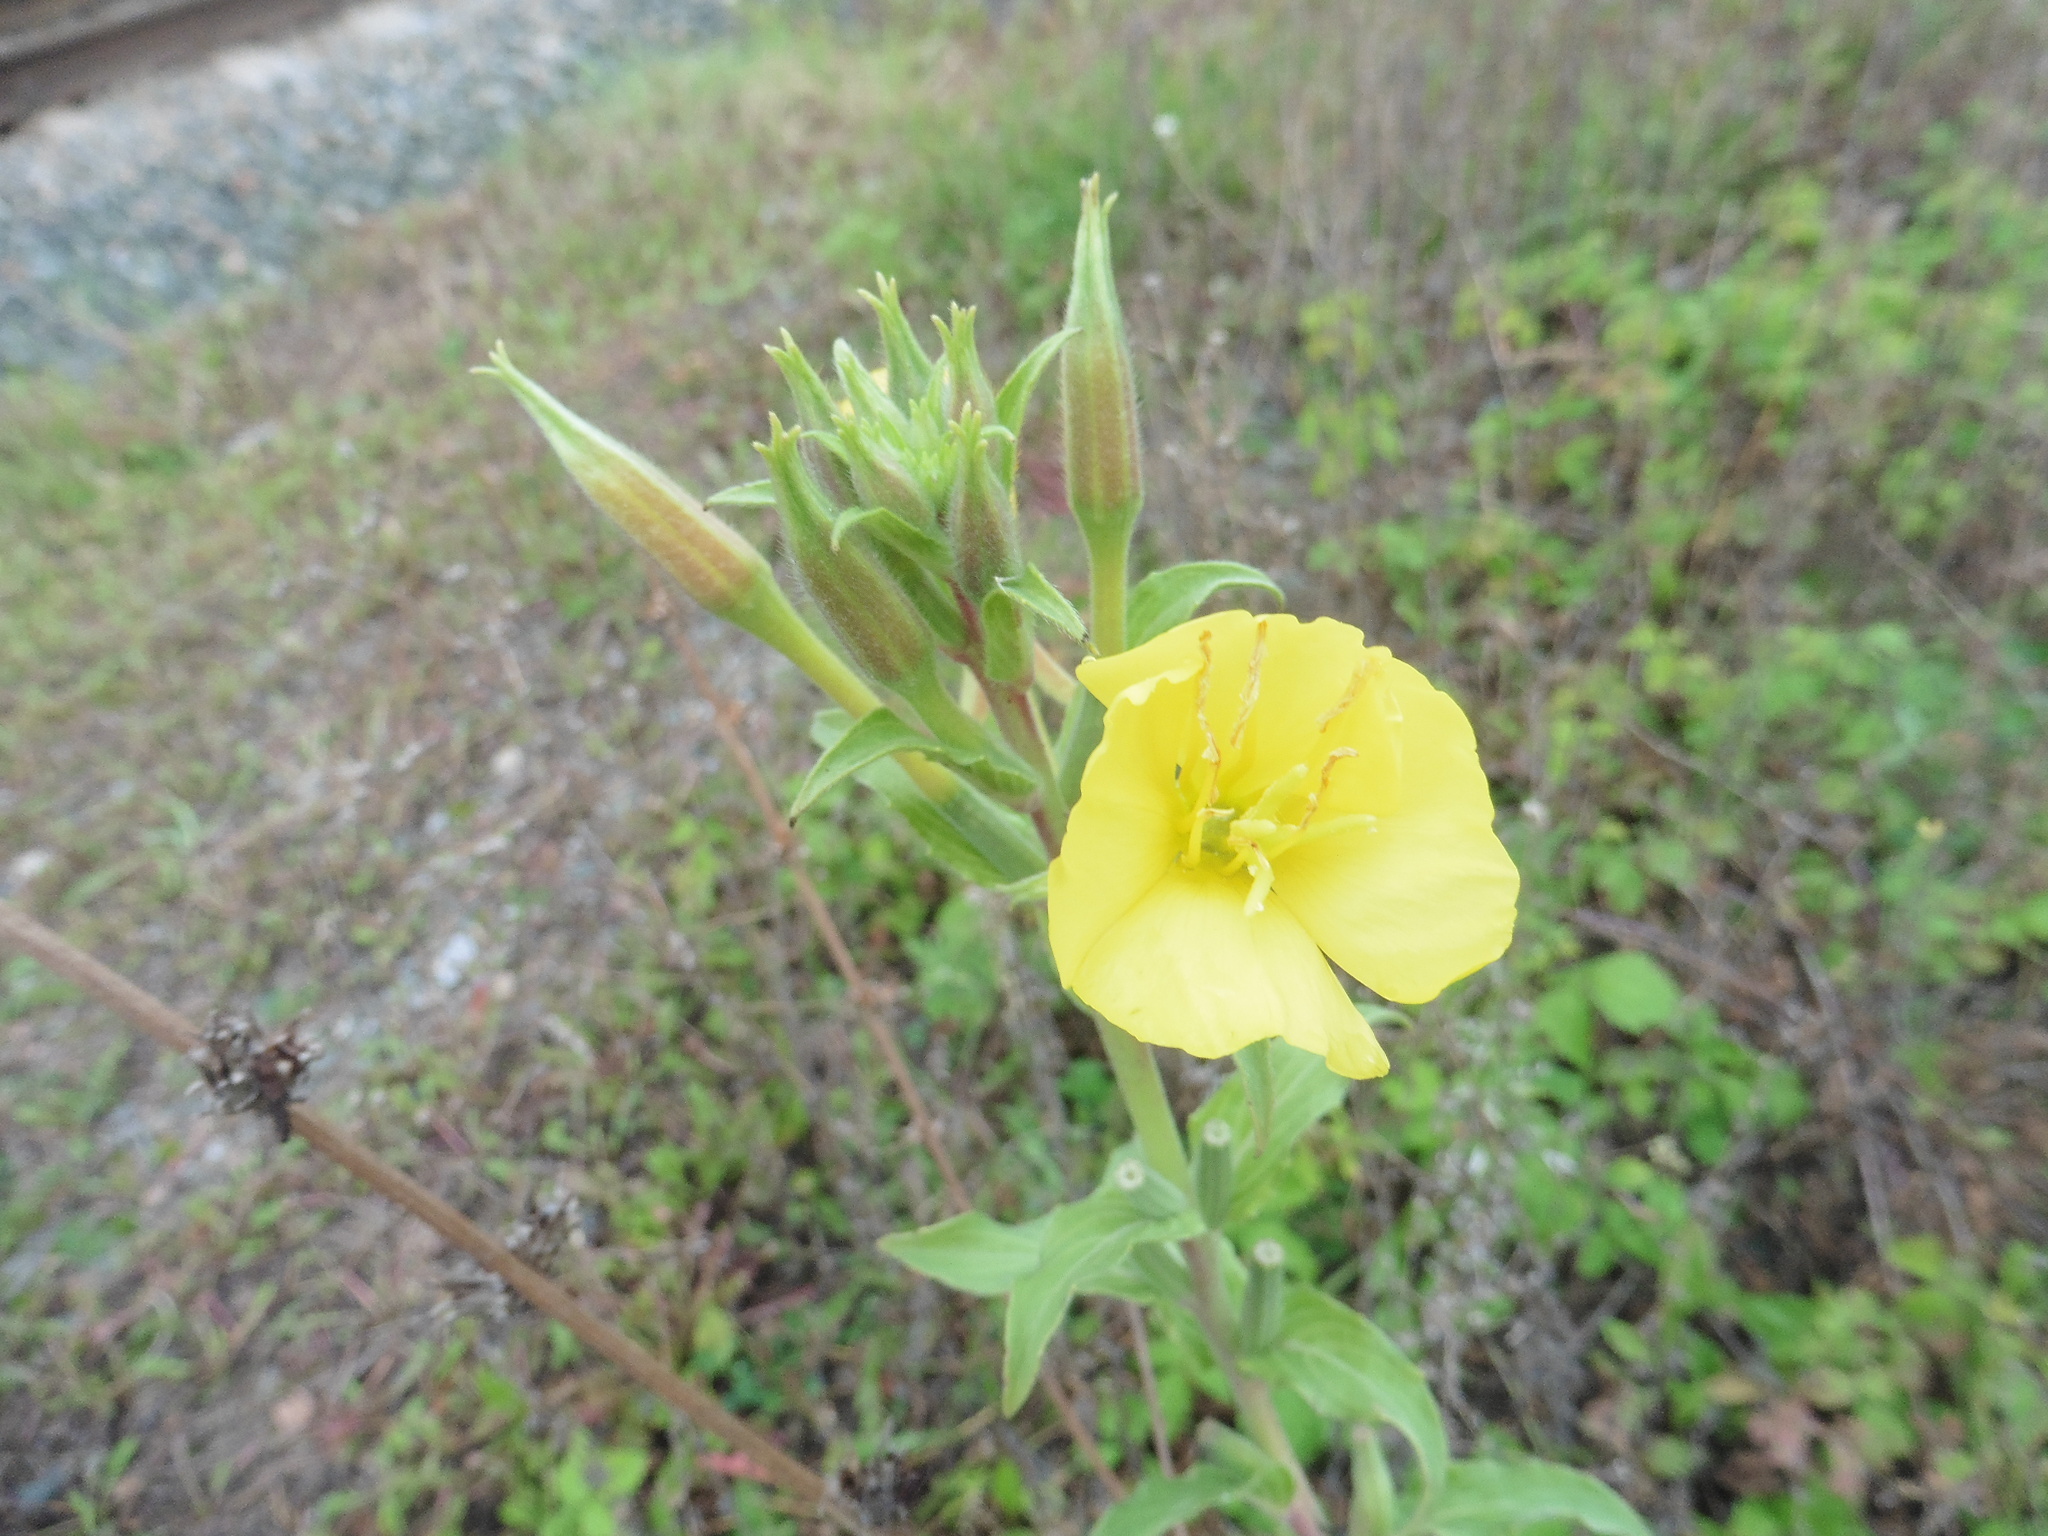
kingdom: Plantae
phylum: Tracheophyta
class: Magnoliopsida
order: Myrtales
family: Onagraceae
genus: Oenothera
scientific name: Oenothera villosa
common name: Hairy evening-primrose
